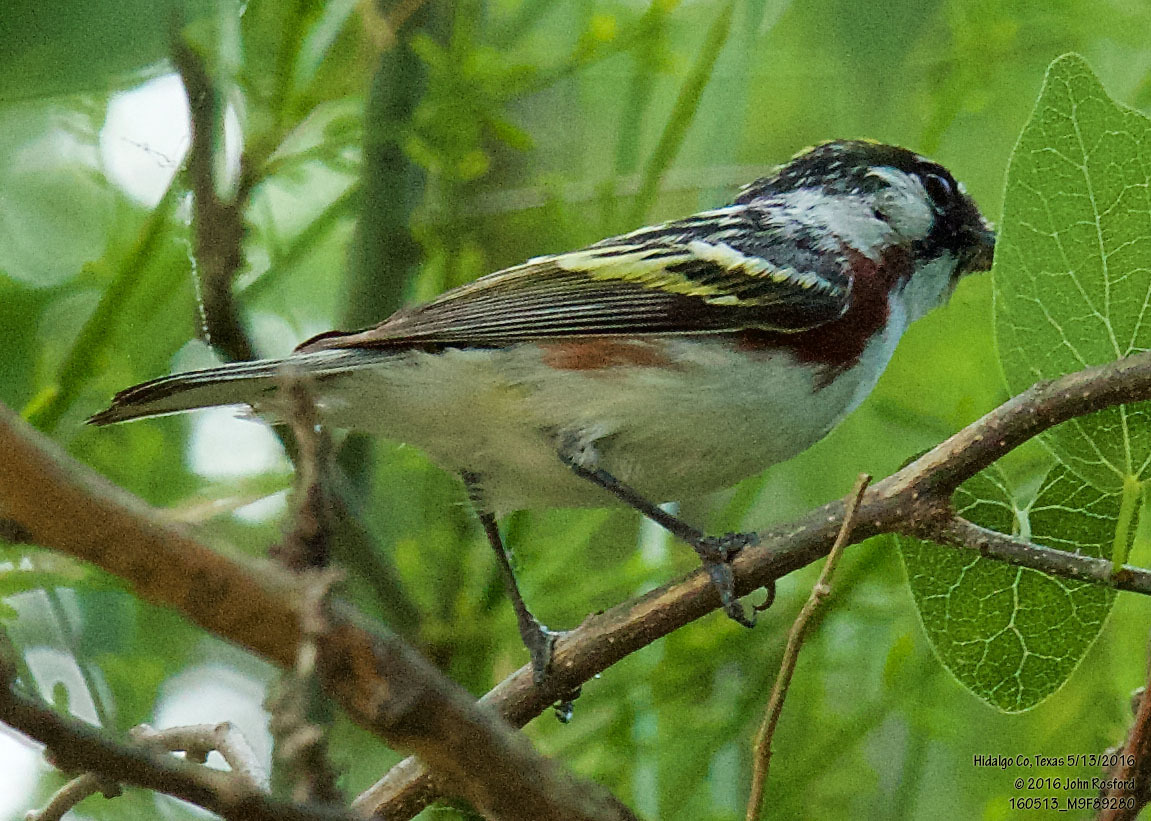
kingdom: Animalia
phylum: Chordata
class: Aves
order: Passeriformes
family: Parulidae
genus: Setophaga
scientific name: Setophaga pensylvanica
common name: Chestnut-sided warbler
